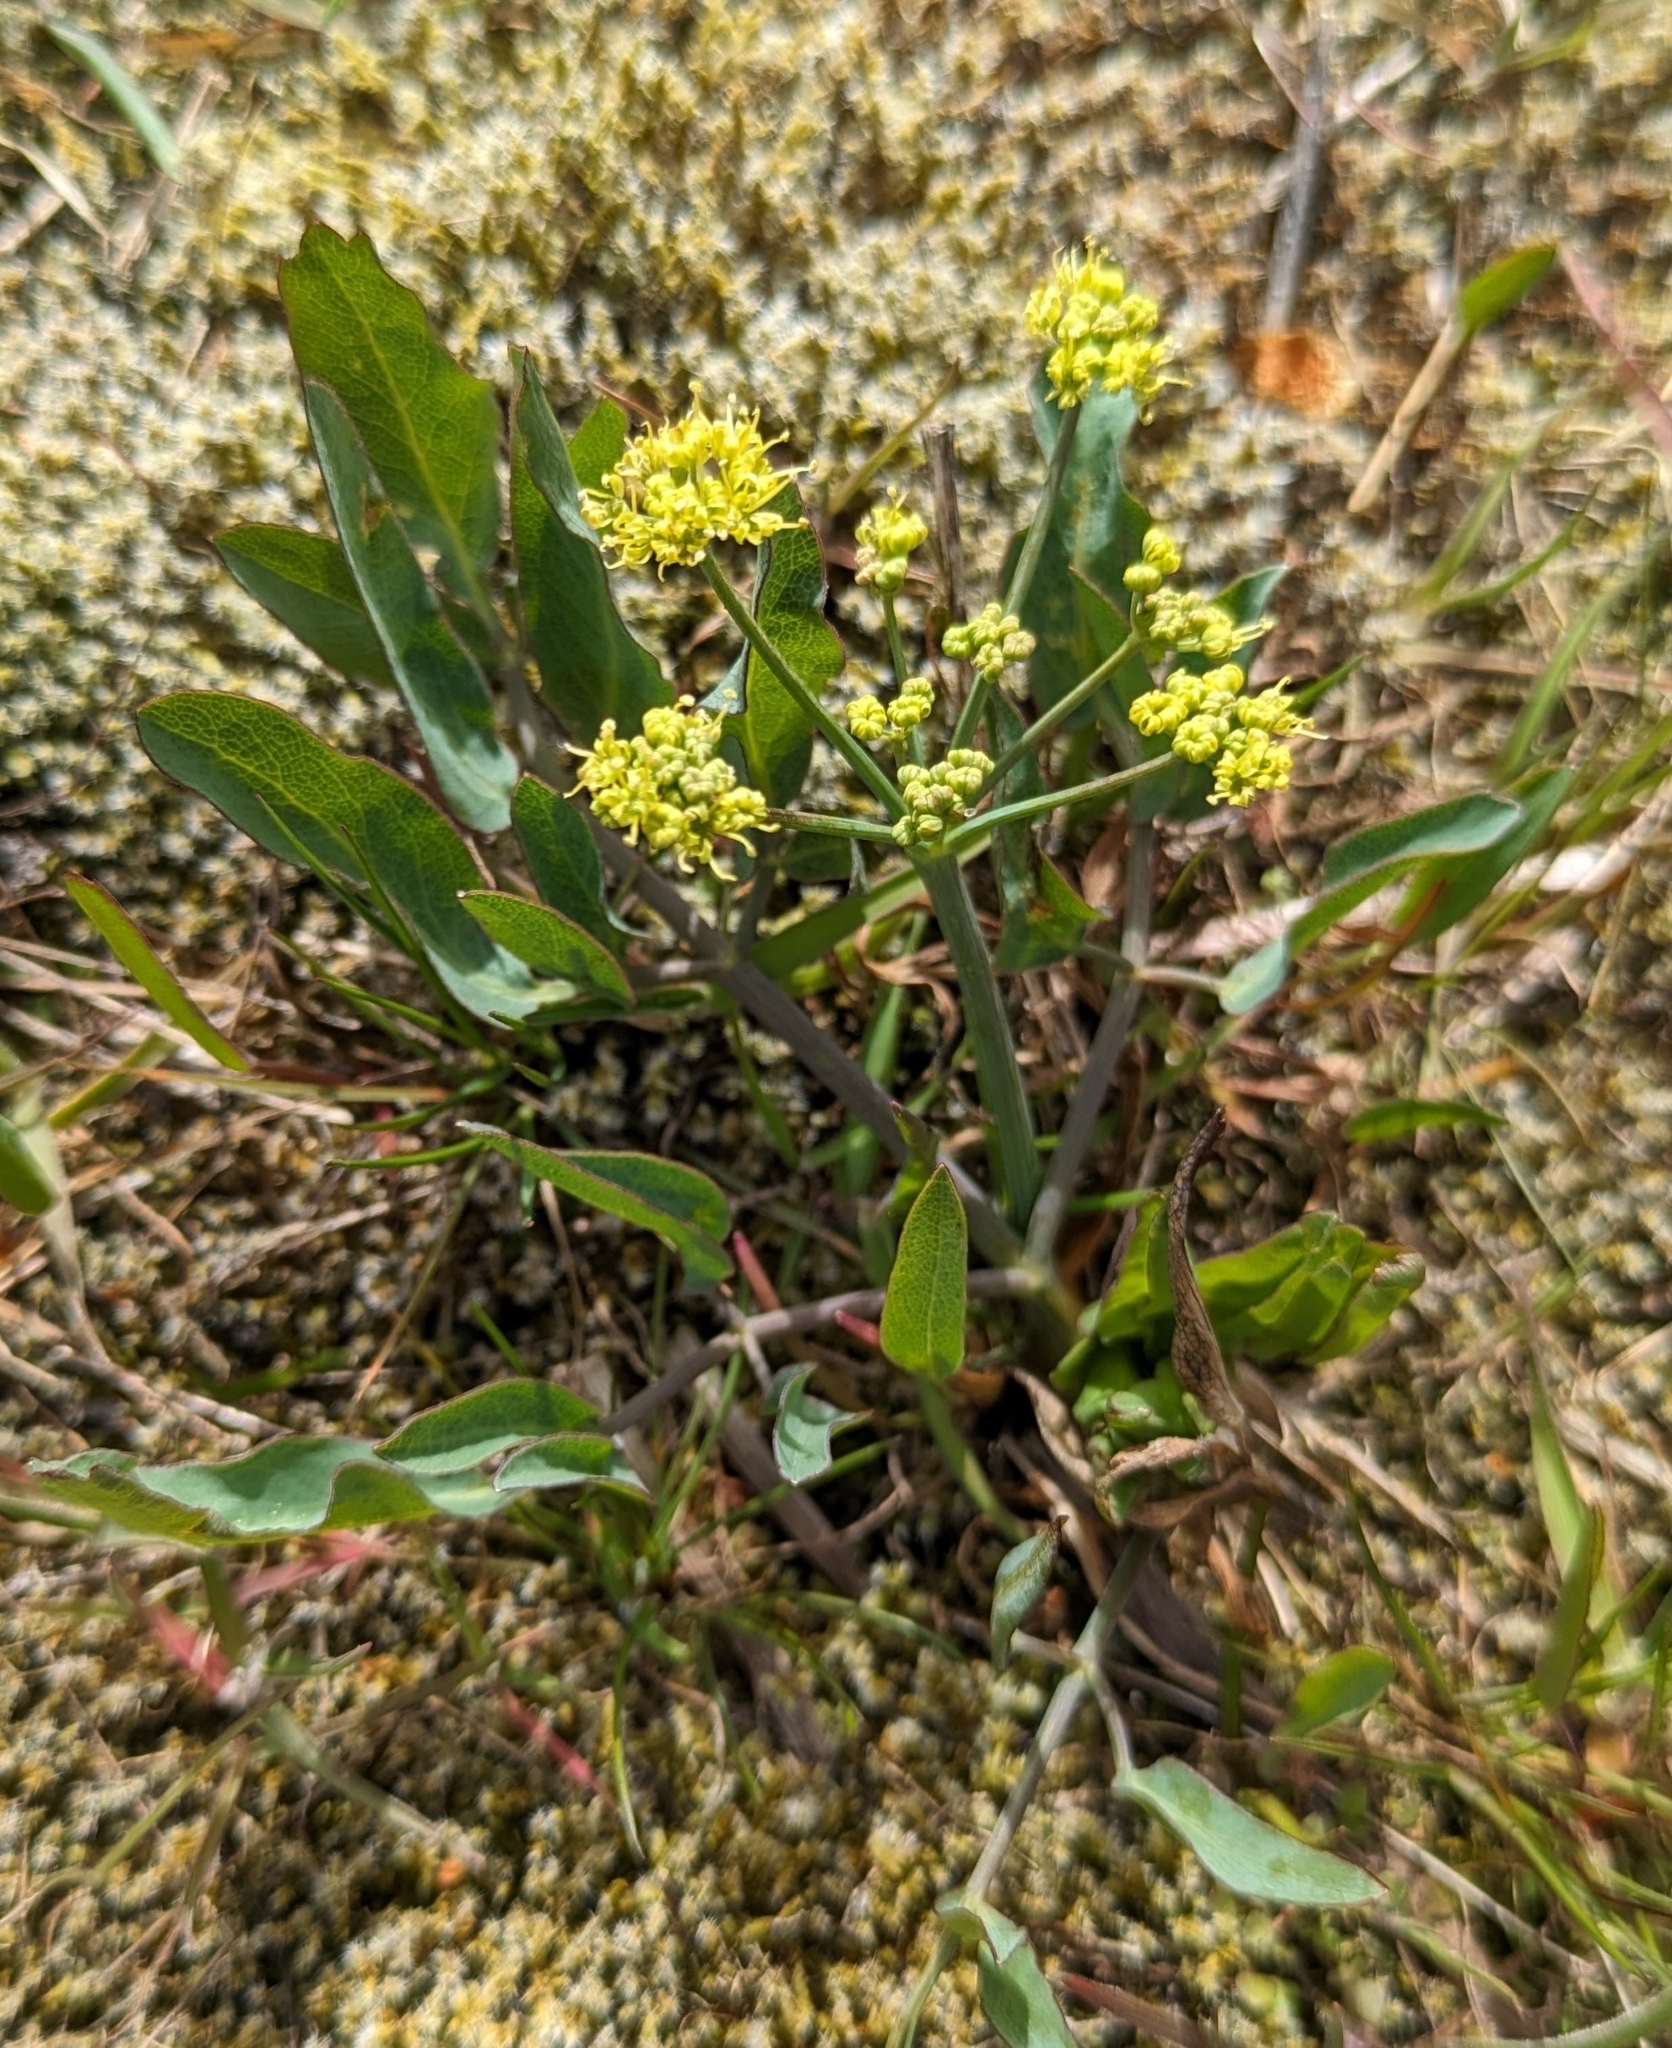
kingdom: Plantae
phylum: Tracheophyta
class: Magnoliopsida
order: Apiales
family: Apiaceae
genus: Lomatium
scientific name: Lomatium nudicaule
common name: Pestle lomatium
